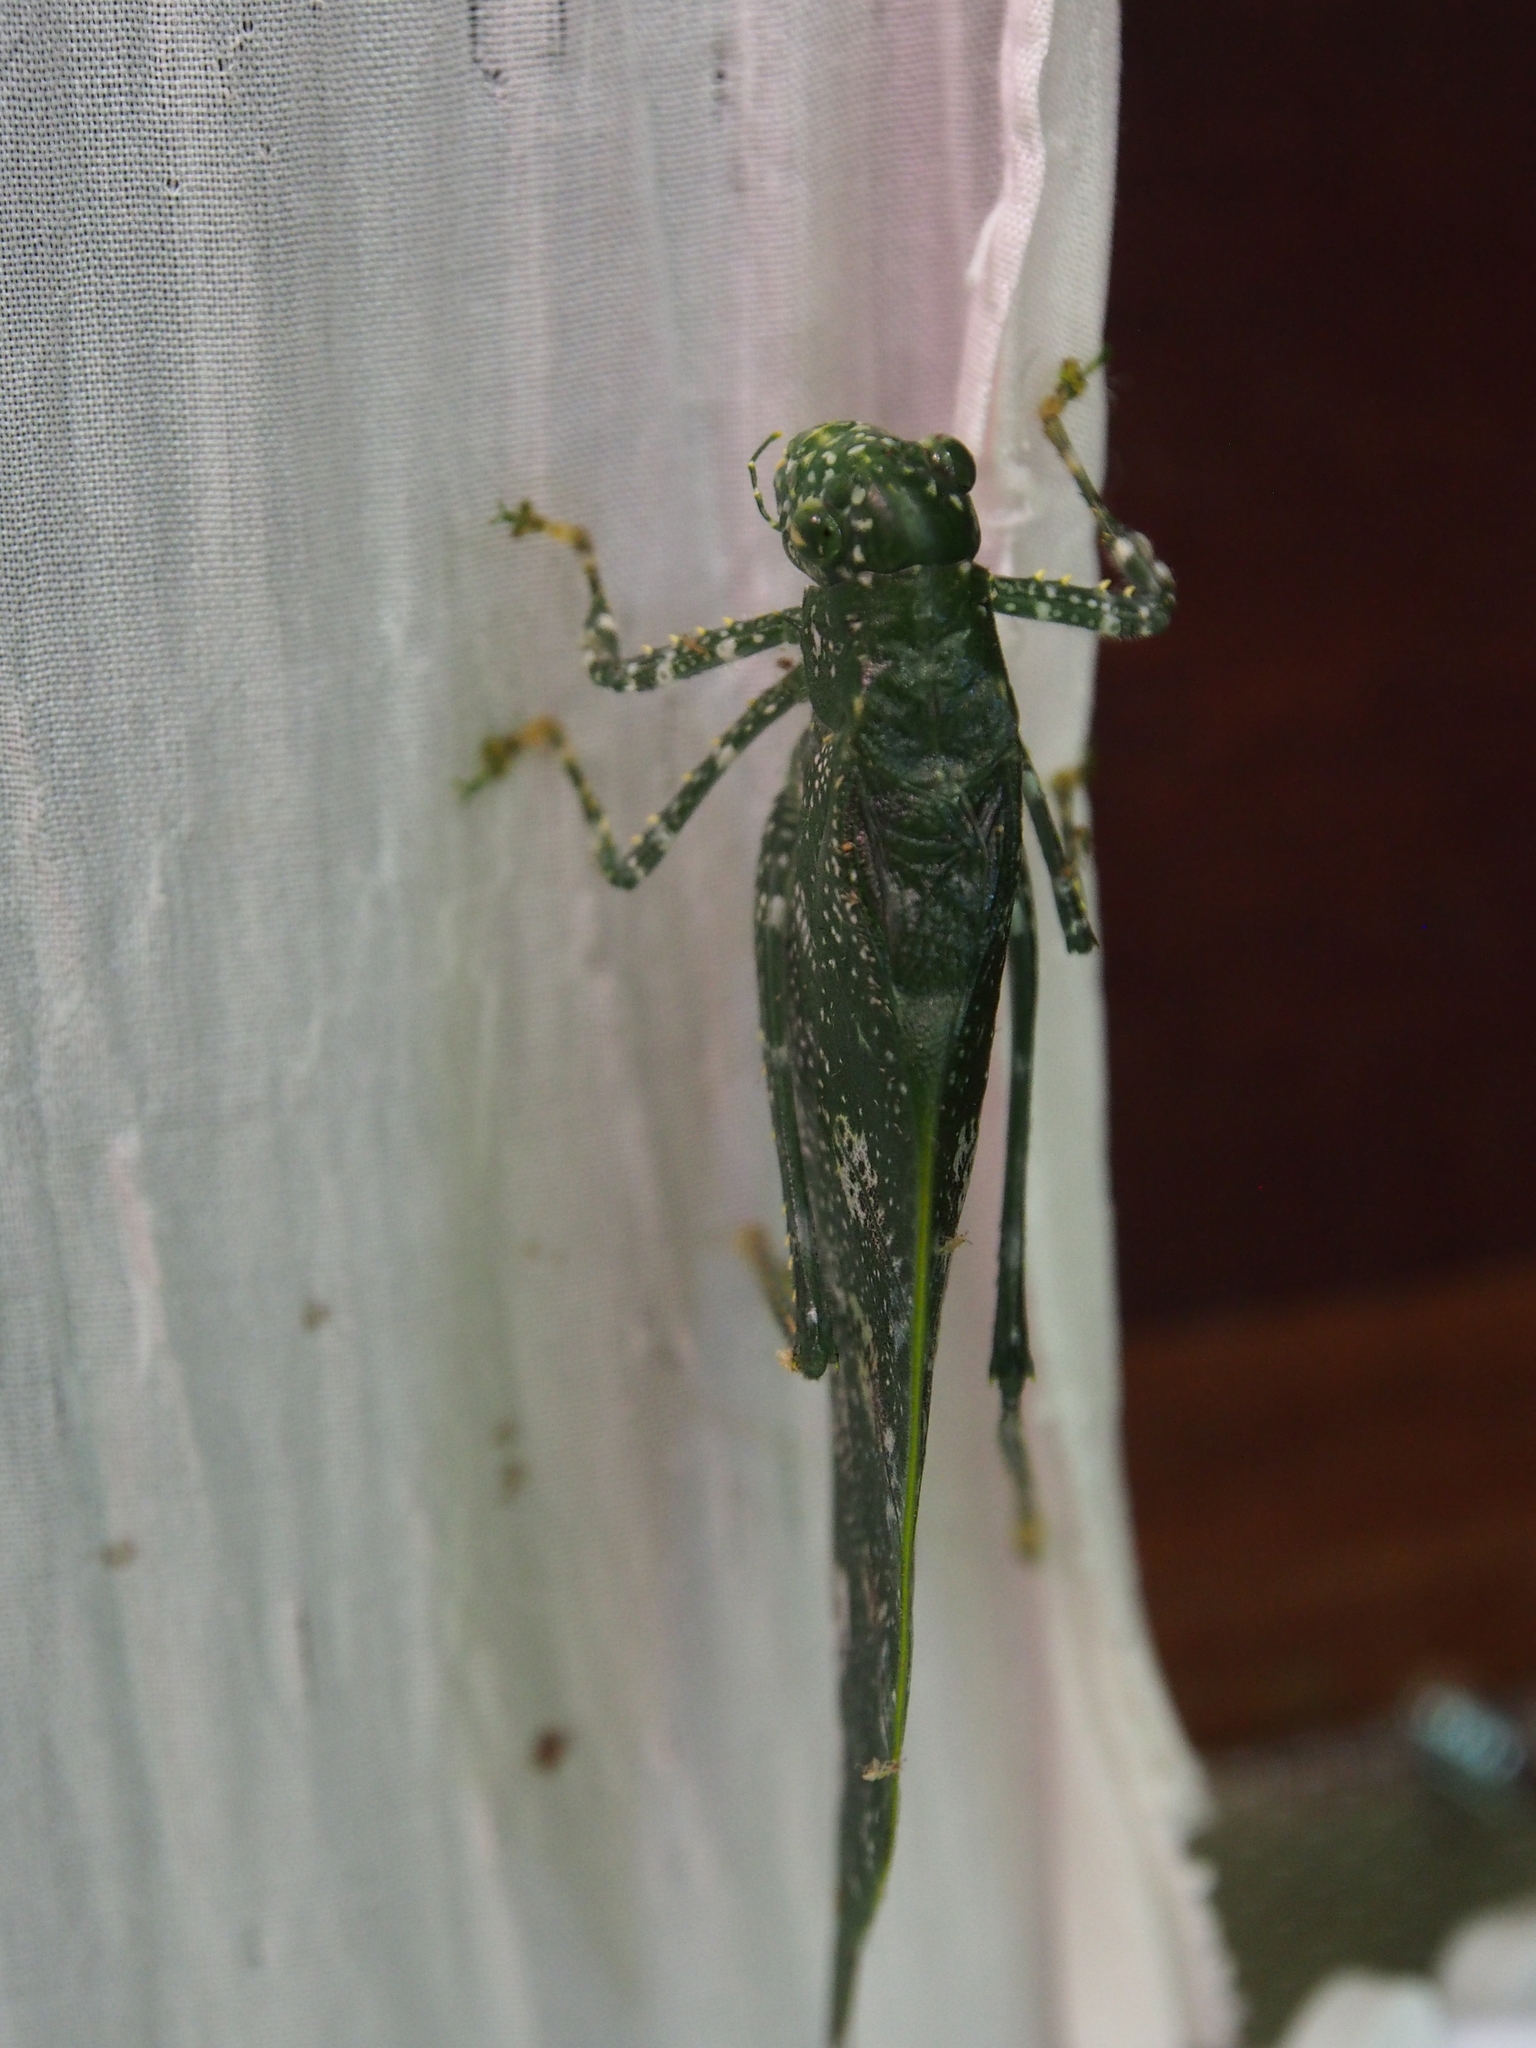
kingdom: Animalia
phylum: Arthropoda
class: Insecta
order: Orthoptera
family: Tettigoniidae
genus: Anapolisia
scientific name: Anapolisia maculosa
